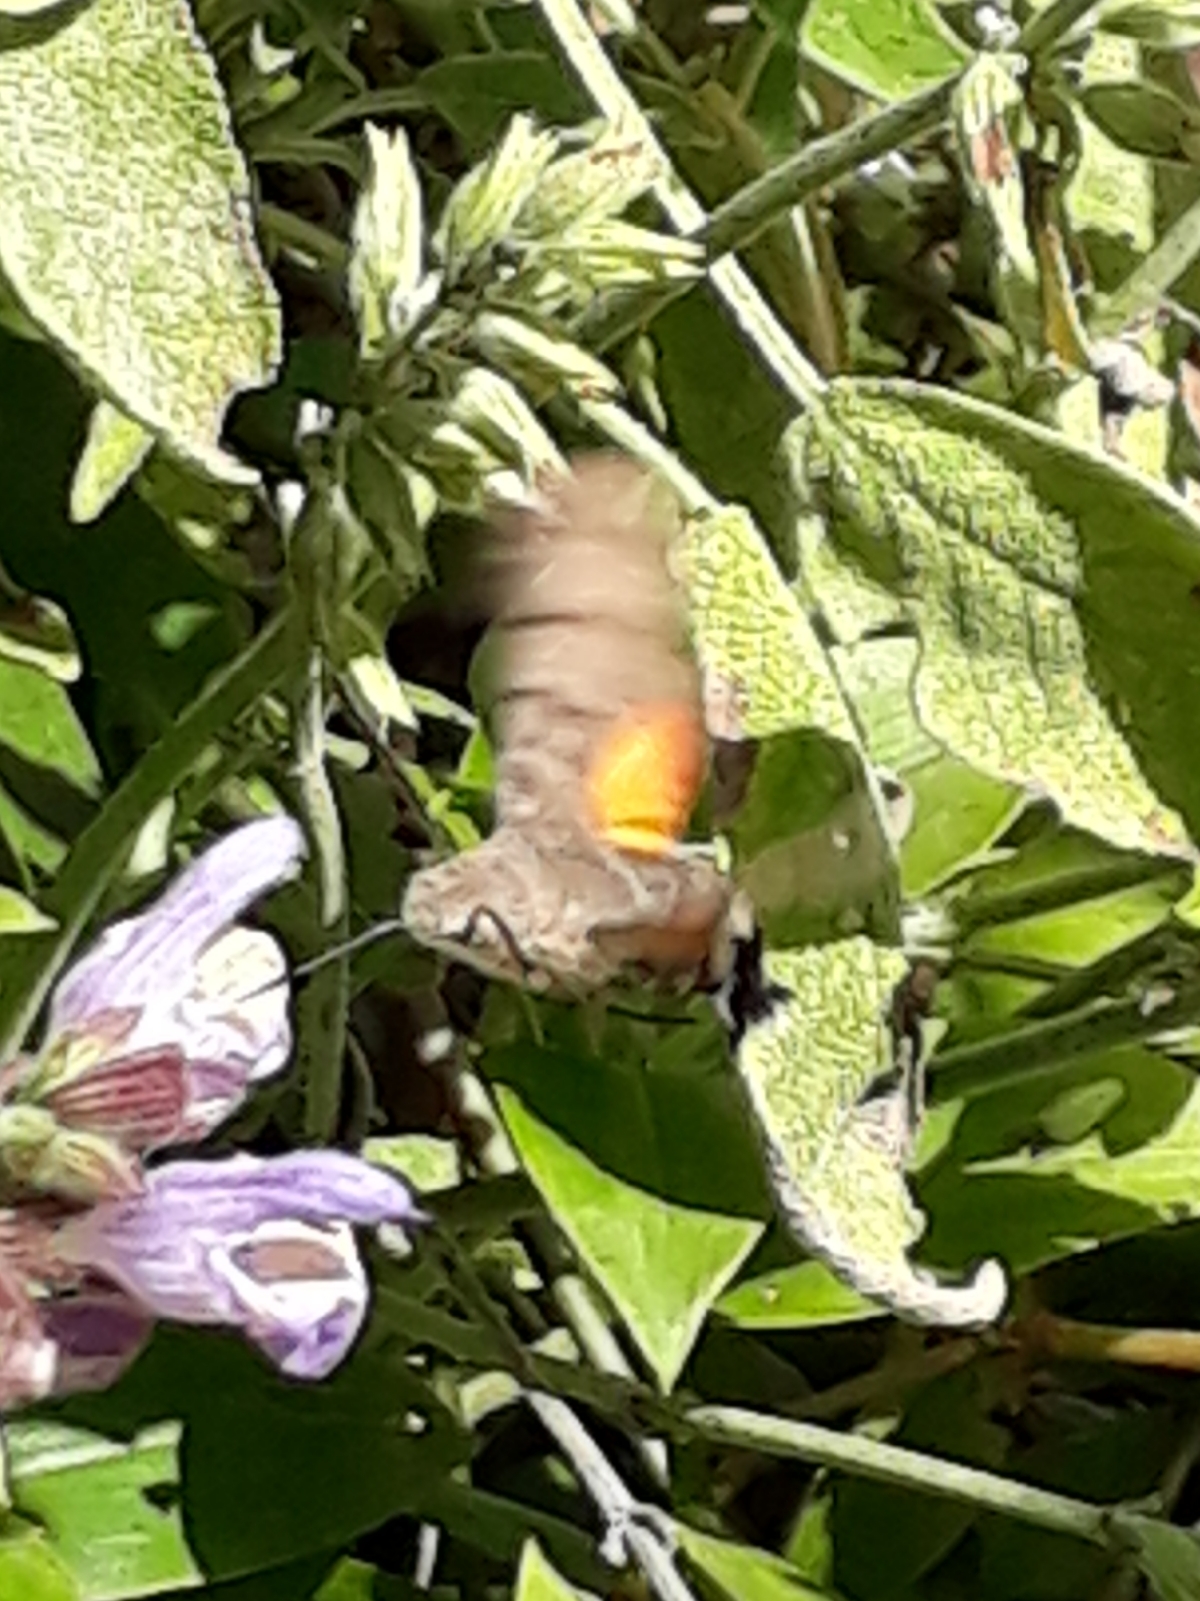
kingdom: Animalia
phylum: Arthropoda
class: Insecta
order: Lepidoptera
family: Sphingidae
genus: Macroglossum
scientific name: Macroglossum stellatarum
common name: Humming-bird hawk-moth
